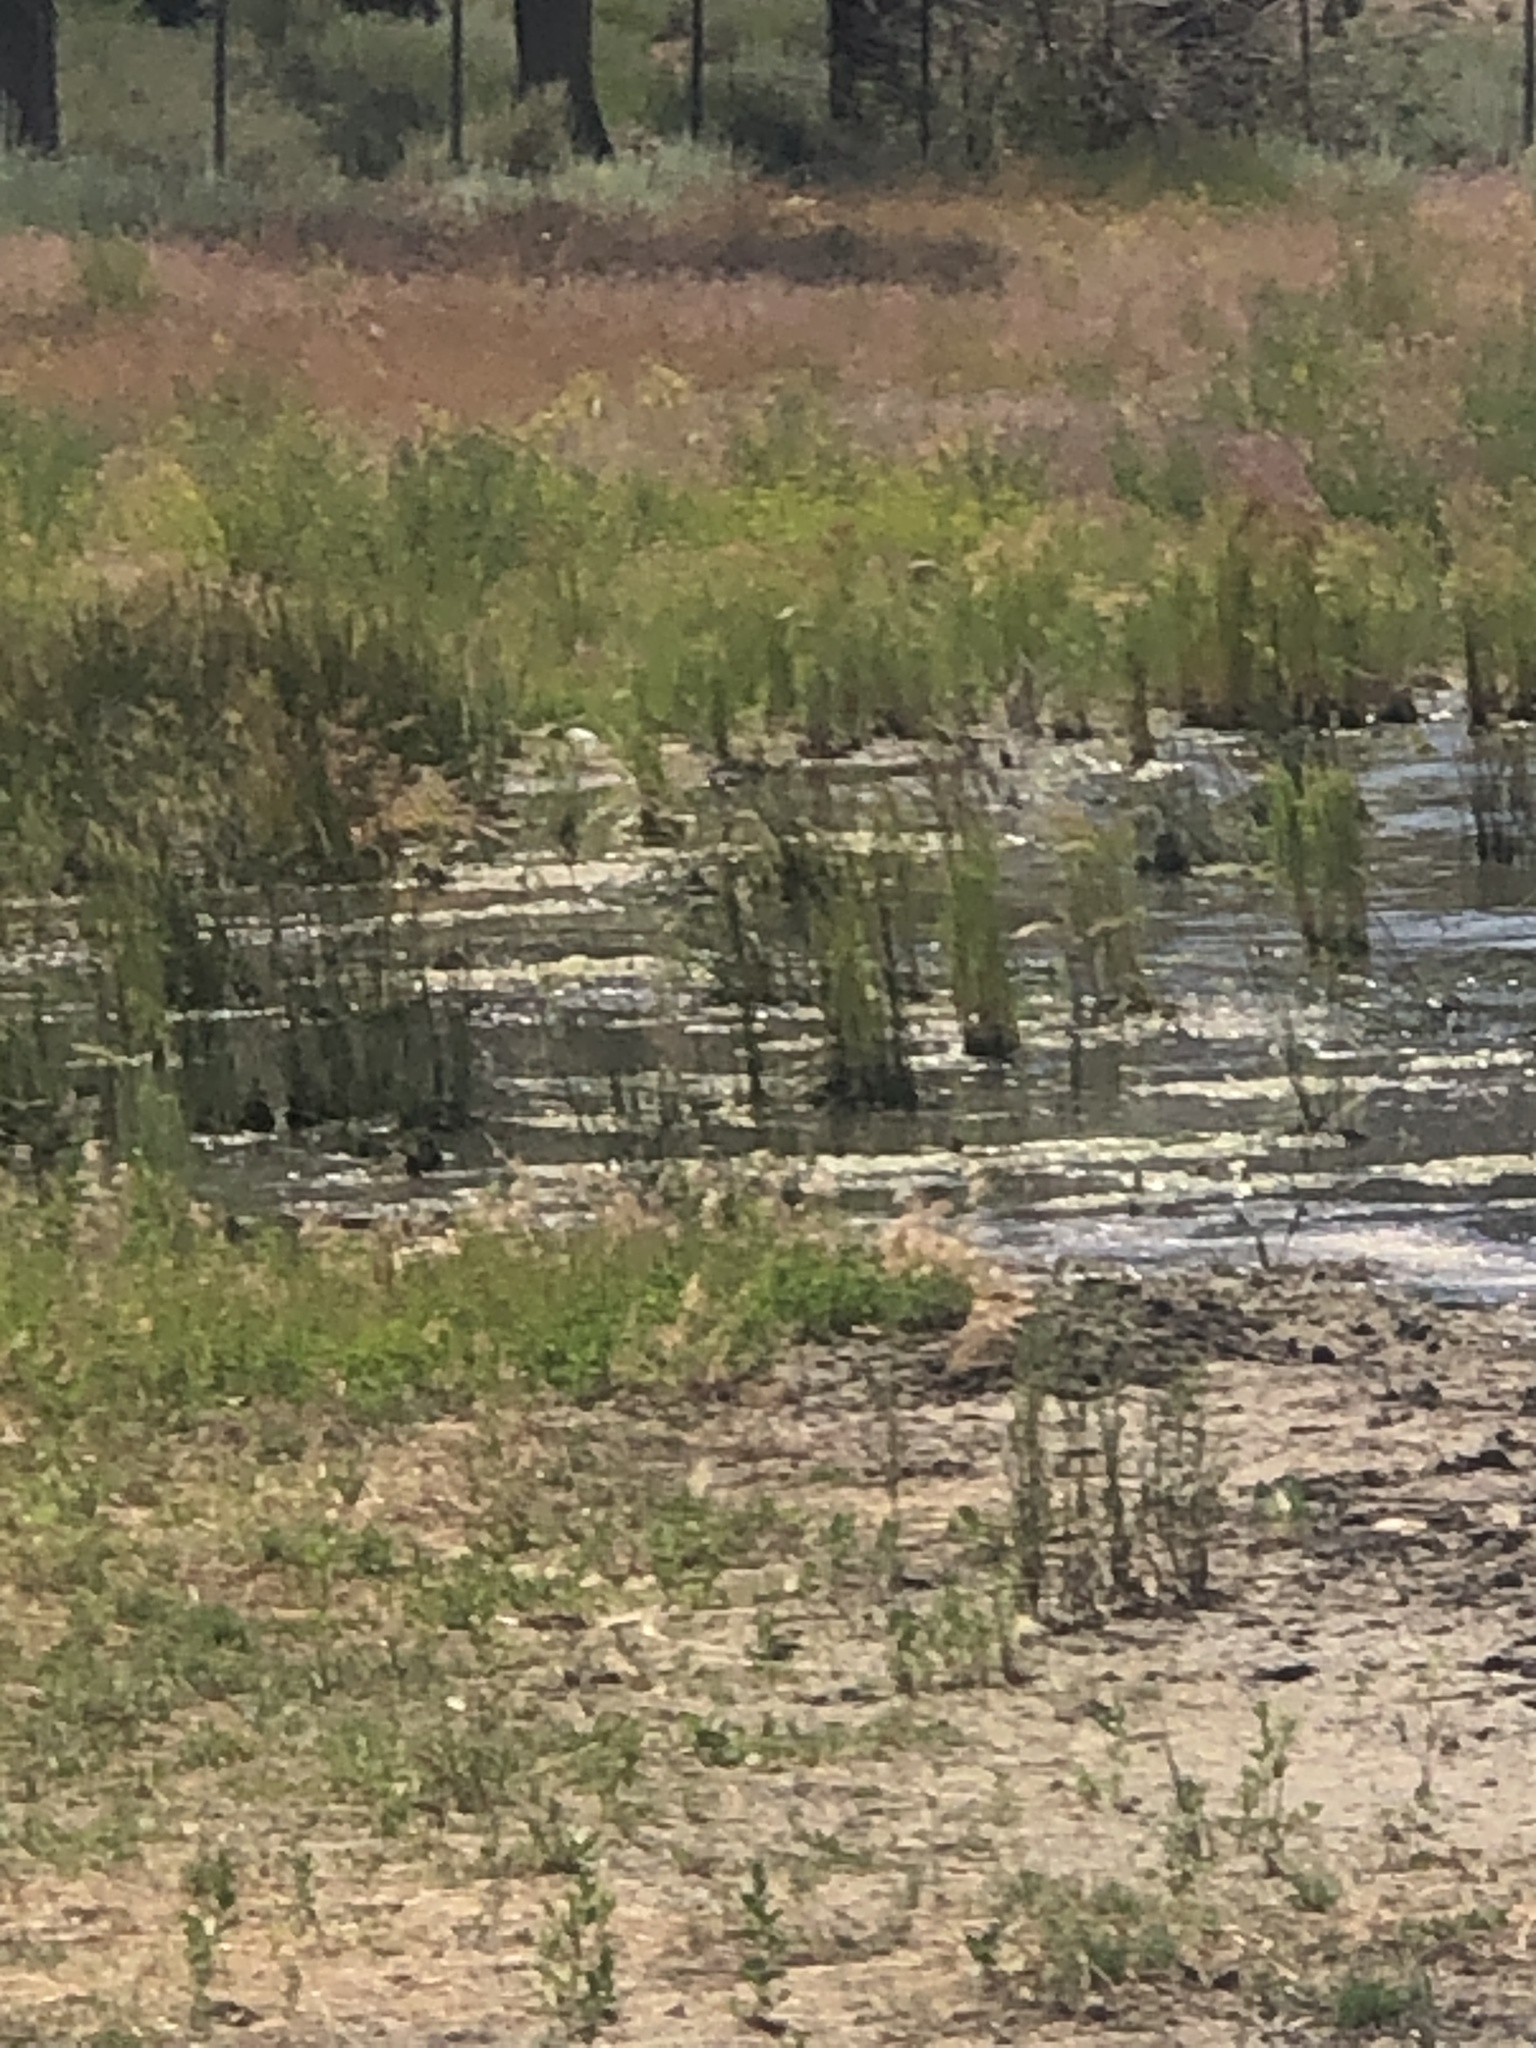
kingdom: Animalia
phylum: Chordata
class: Aves
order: Passeriformes
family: Icteridae
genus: Euphagus
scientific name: Euphagus cyanocephalus
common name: Brewer's blackbird
